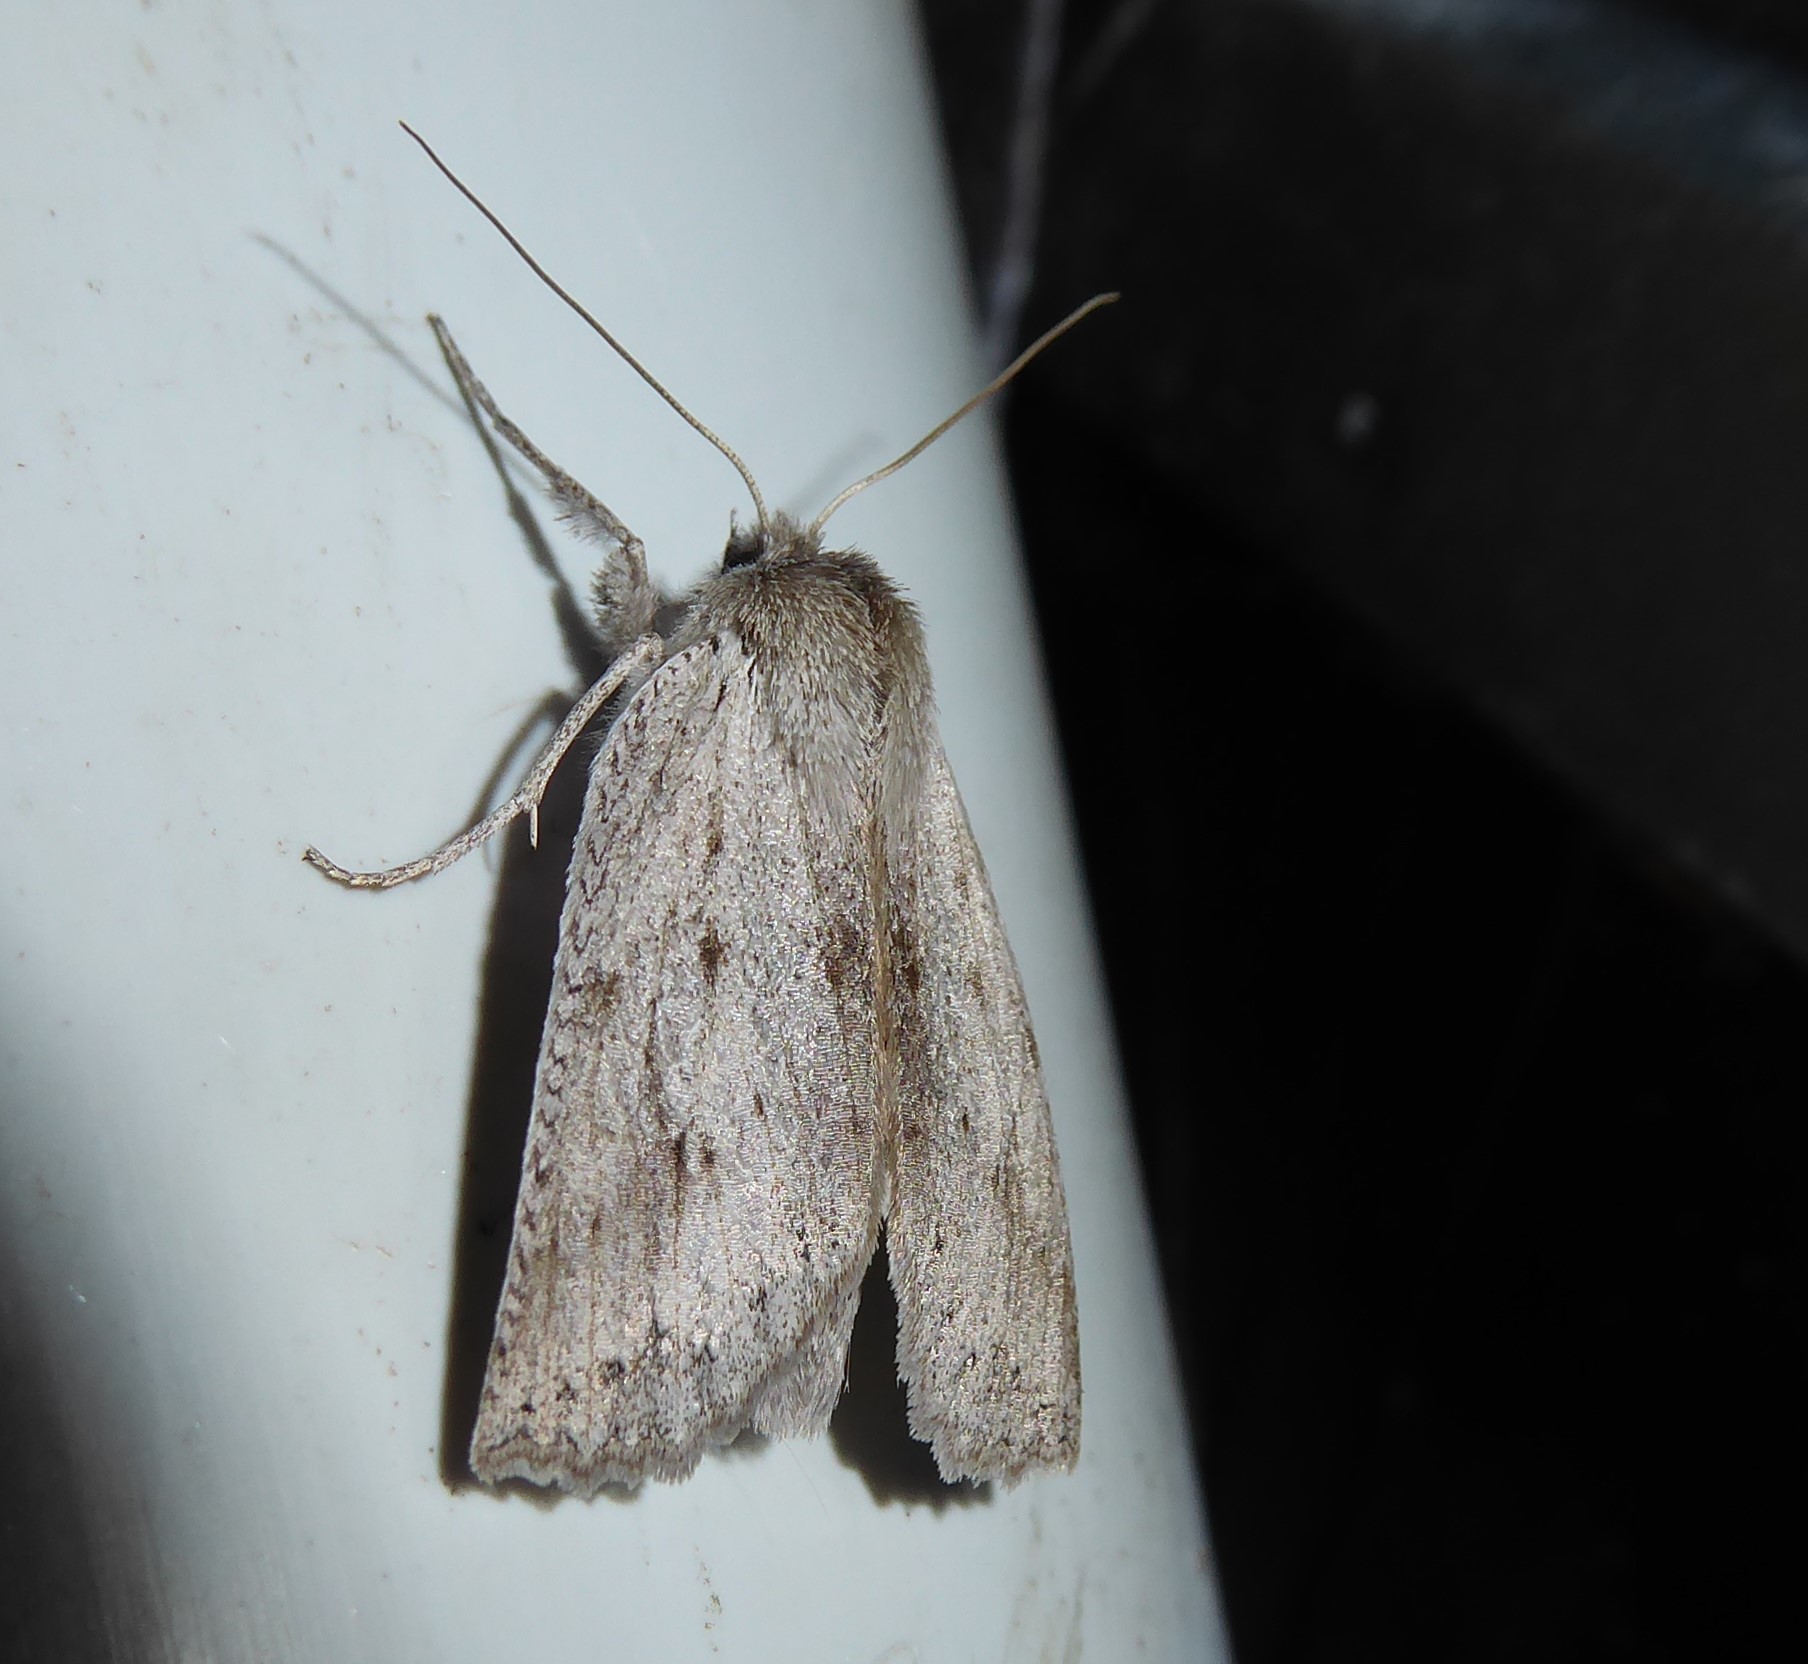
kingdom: Animalia
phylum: Arthropoda
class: Insecta
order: Lepidoptera
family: Geometridae
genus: Declana
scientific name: Declana leptomera
